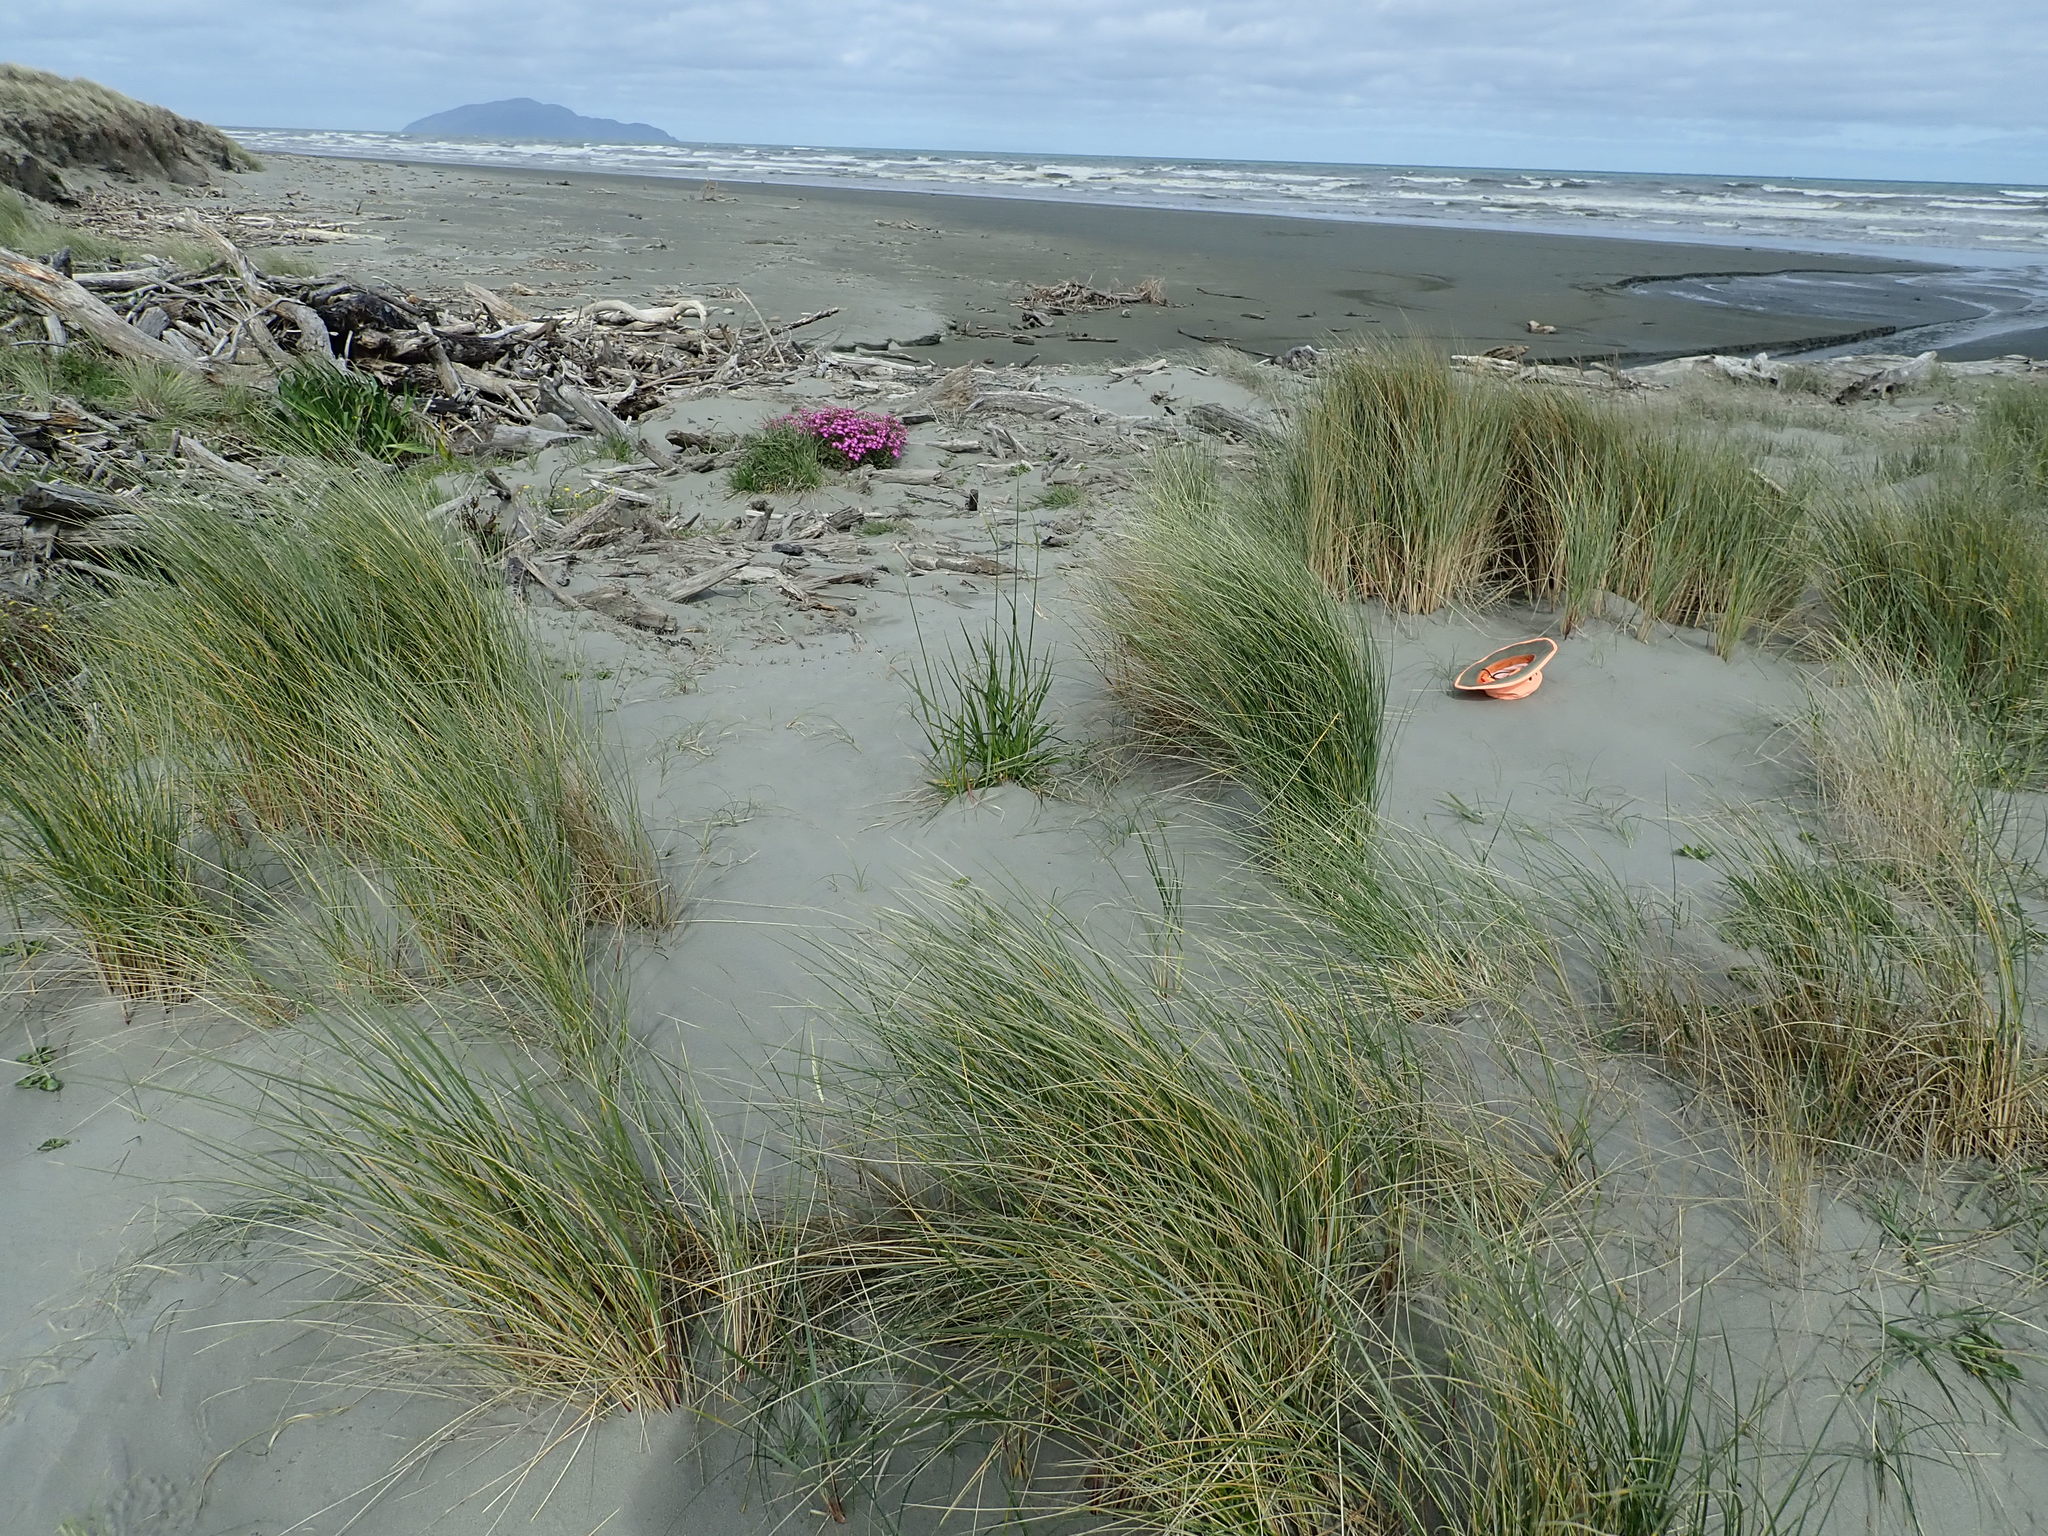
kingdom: Plantae
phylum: Tracheophyta
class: Liliopsida
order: Poales
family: Cyperaceae
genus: Carex
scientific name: Carex pumila
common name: Dwarf sedge
